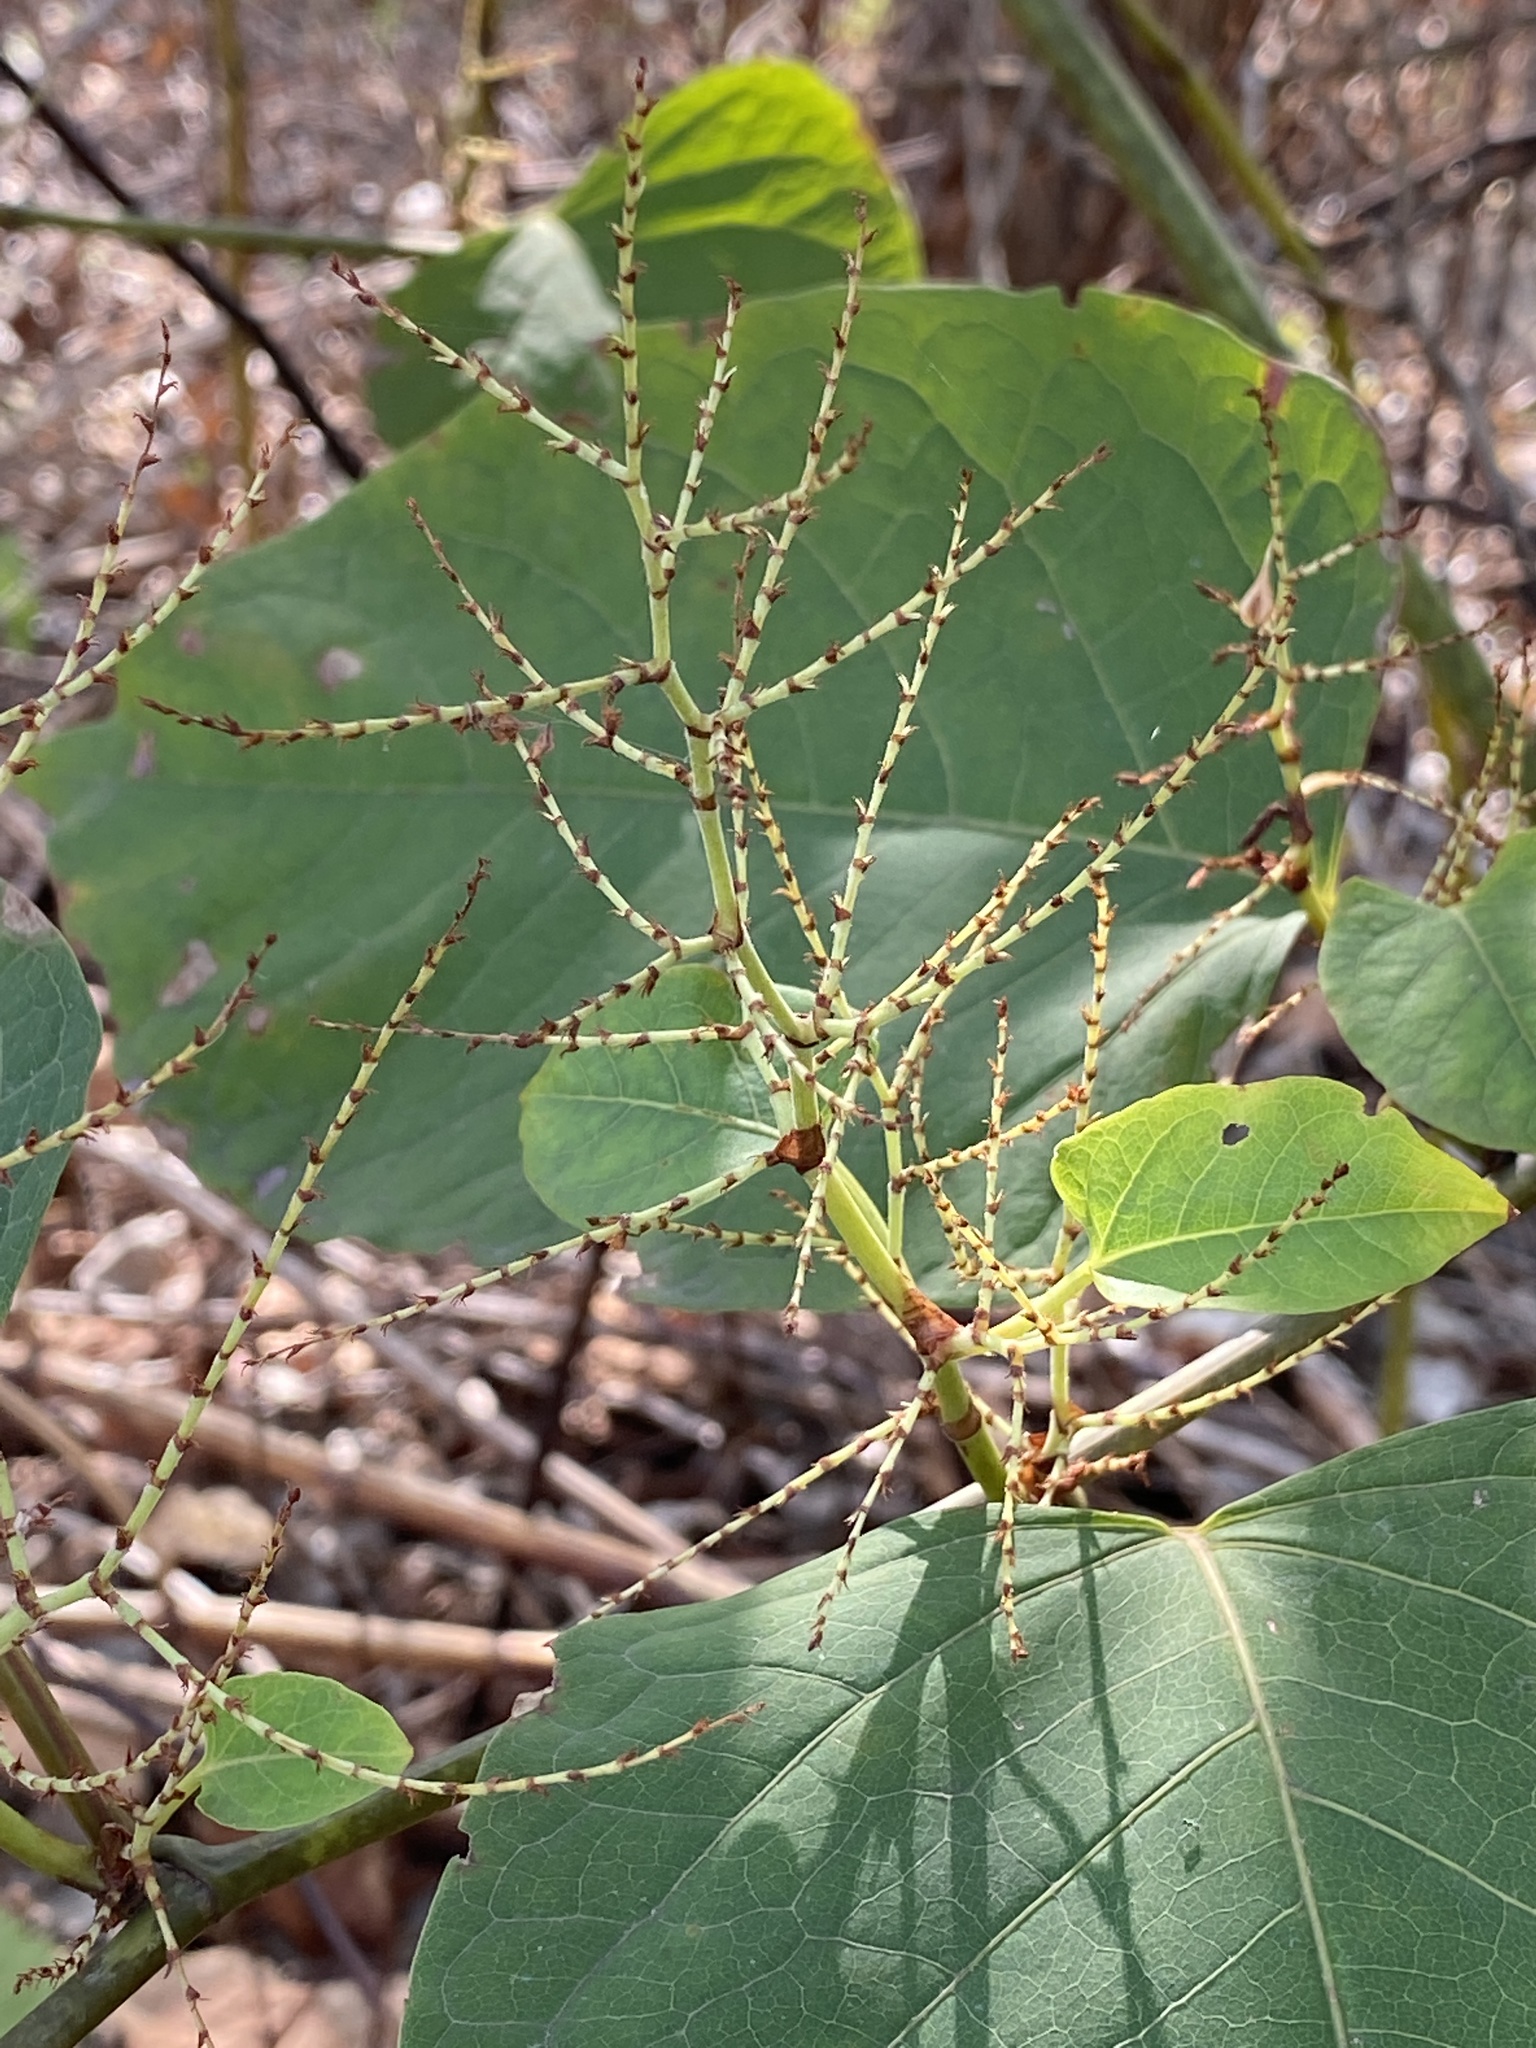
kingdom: Plantae
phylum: Tracheophyta
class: Magnoliopsida
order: Caryophyllales
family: Polygonaceae
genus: Reynoutria
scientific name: Reynoutria japonica
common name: Japanese knotweed
